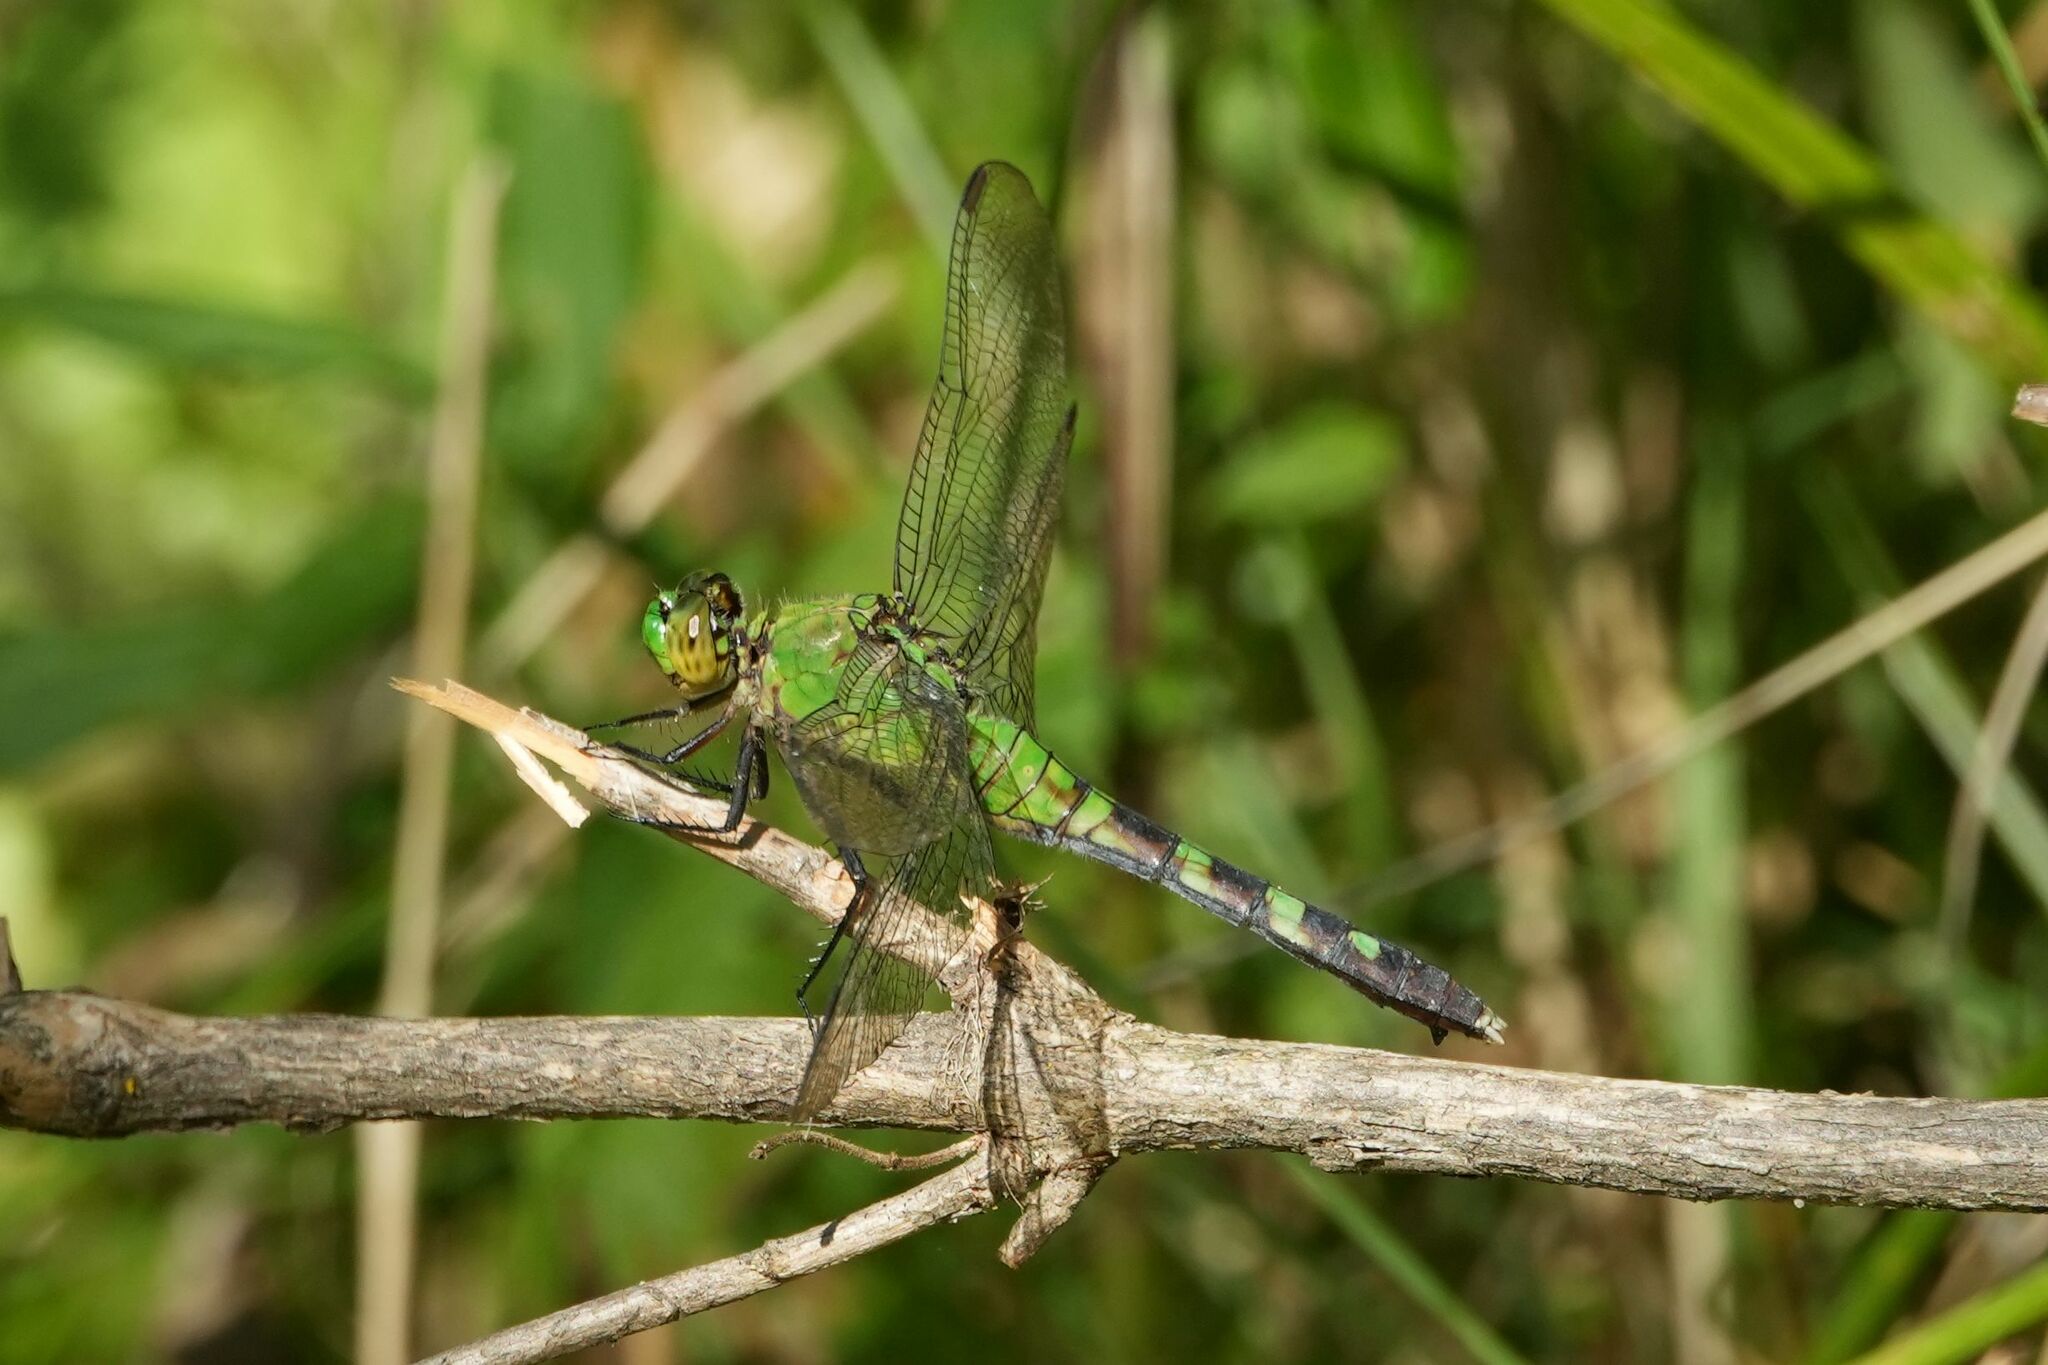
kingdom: Animalia
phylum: Arthropoda
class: Insecta
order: Odonata
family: Libellulidae
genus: Erythemis
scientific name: Erythemis simplicicollis
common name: Eastern pondhawk
